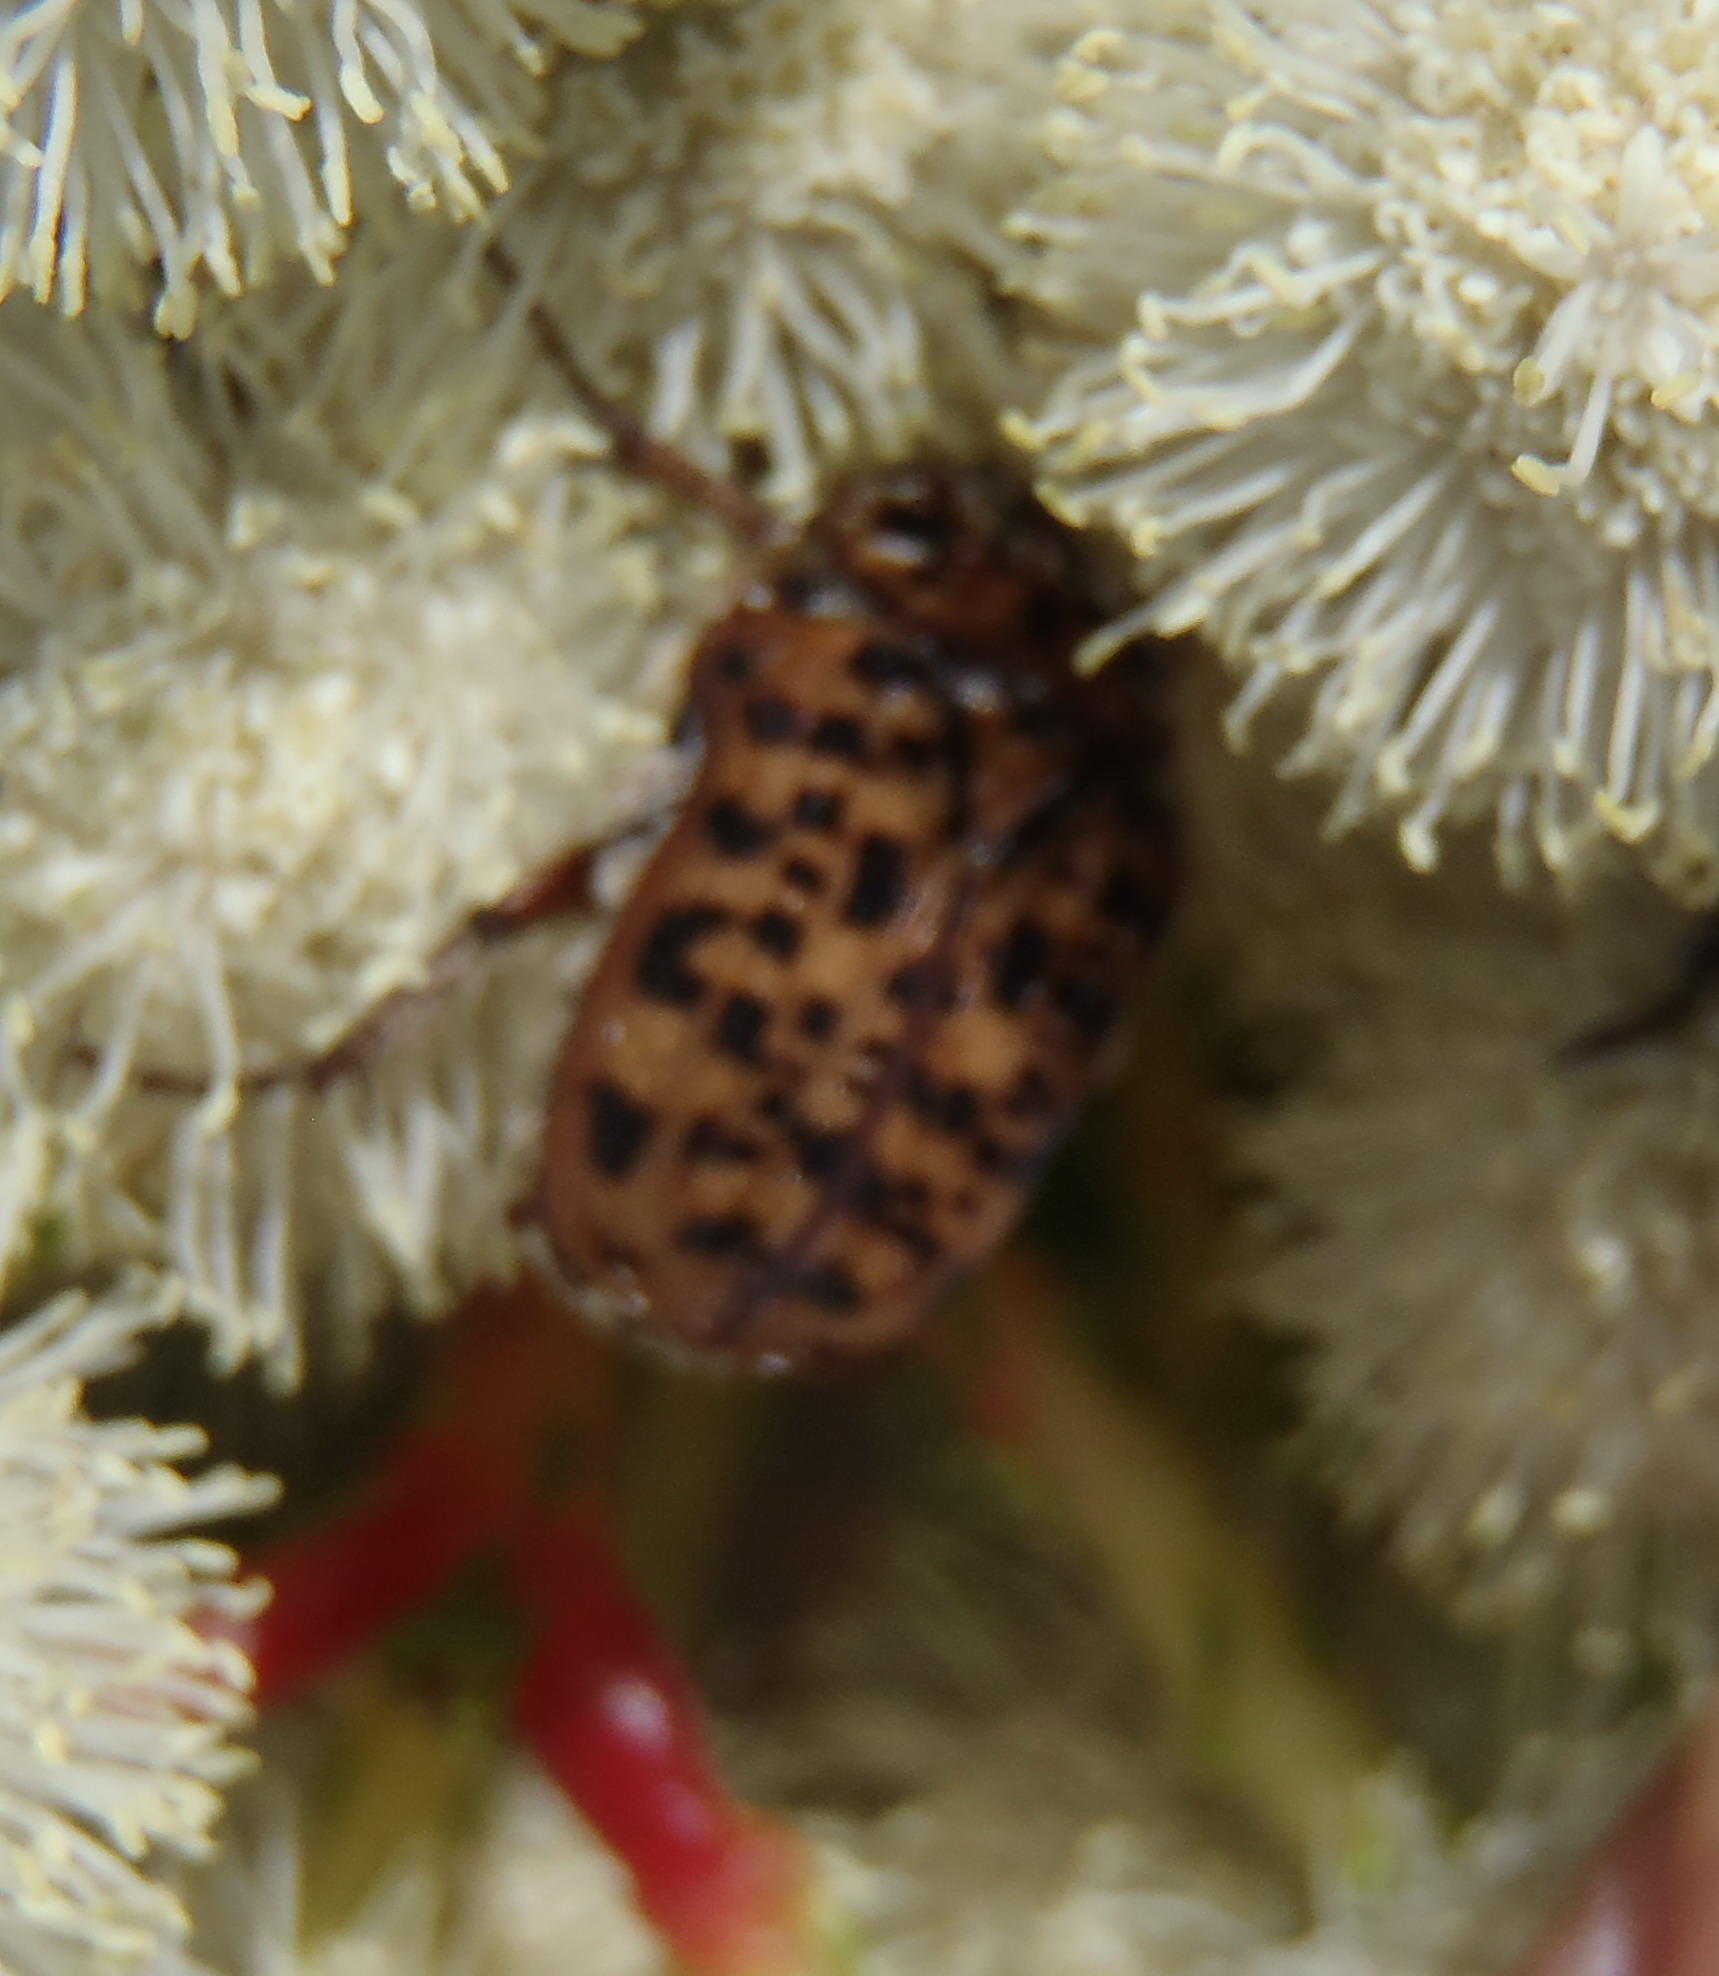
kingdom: Animalia
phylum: Arthropoda
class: Insecta
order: Coleoptera
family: Scarabaeidae
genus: Atrichelaphinis
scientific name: Atrichelaphinis tigrina
